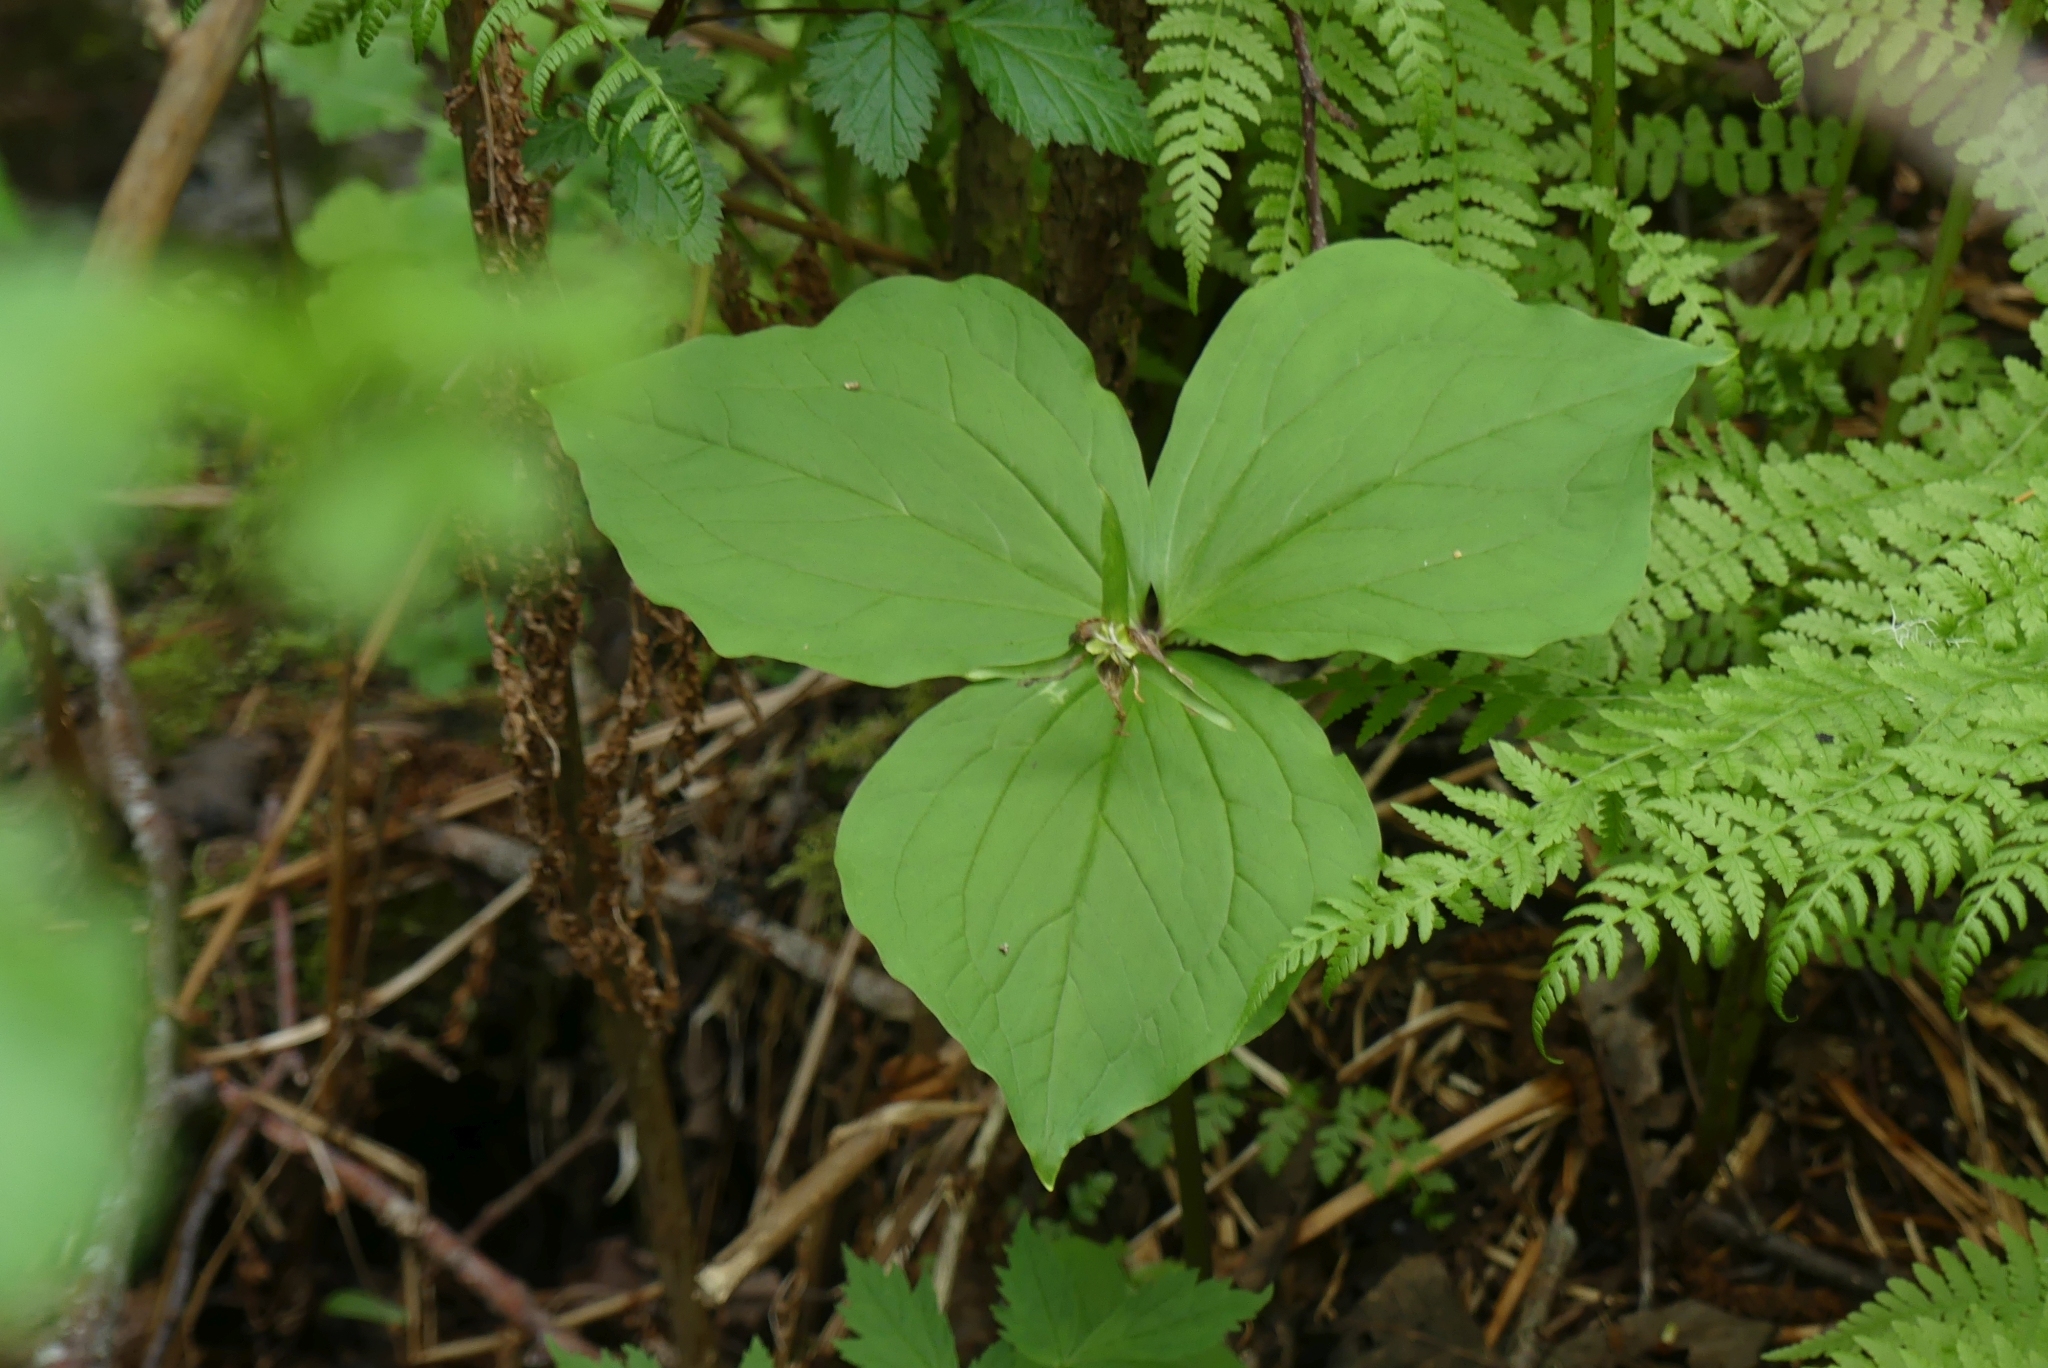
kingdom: Plantae
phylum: Tracheophyta
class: Liliopsida
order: Liliales
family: Melanthiaceae
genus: Trillium
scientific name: Trillium ovatum
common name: Pacific trillium
